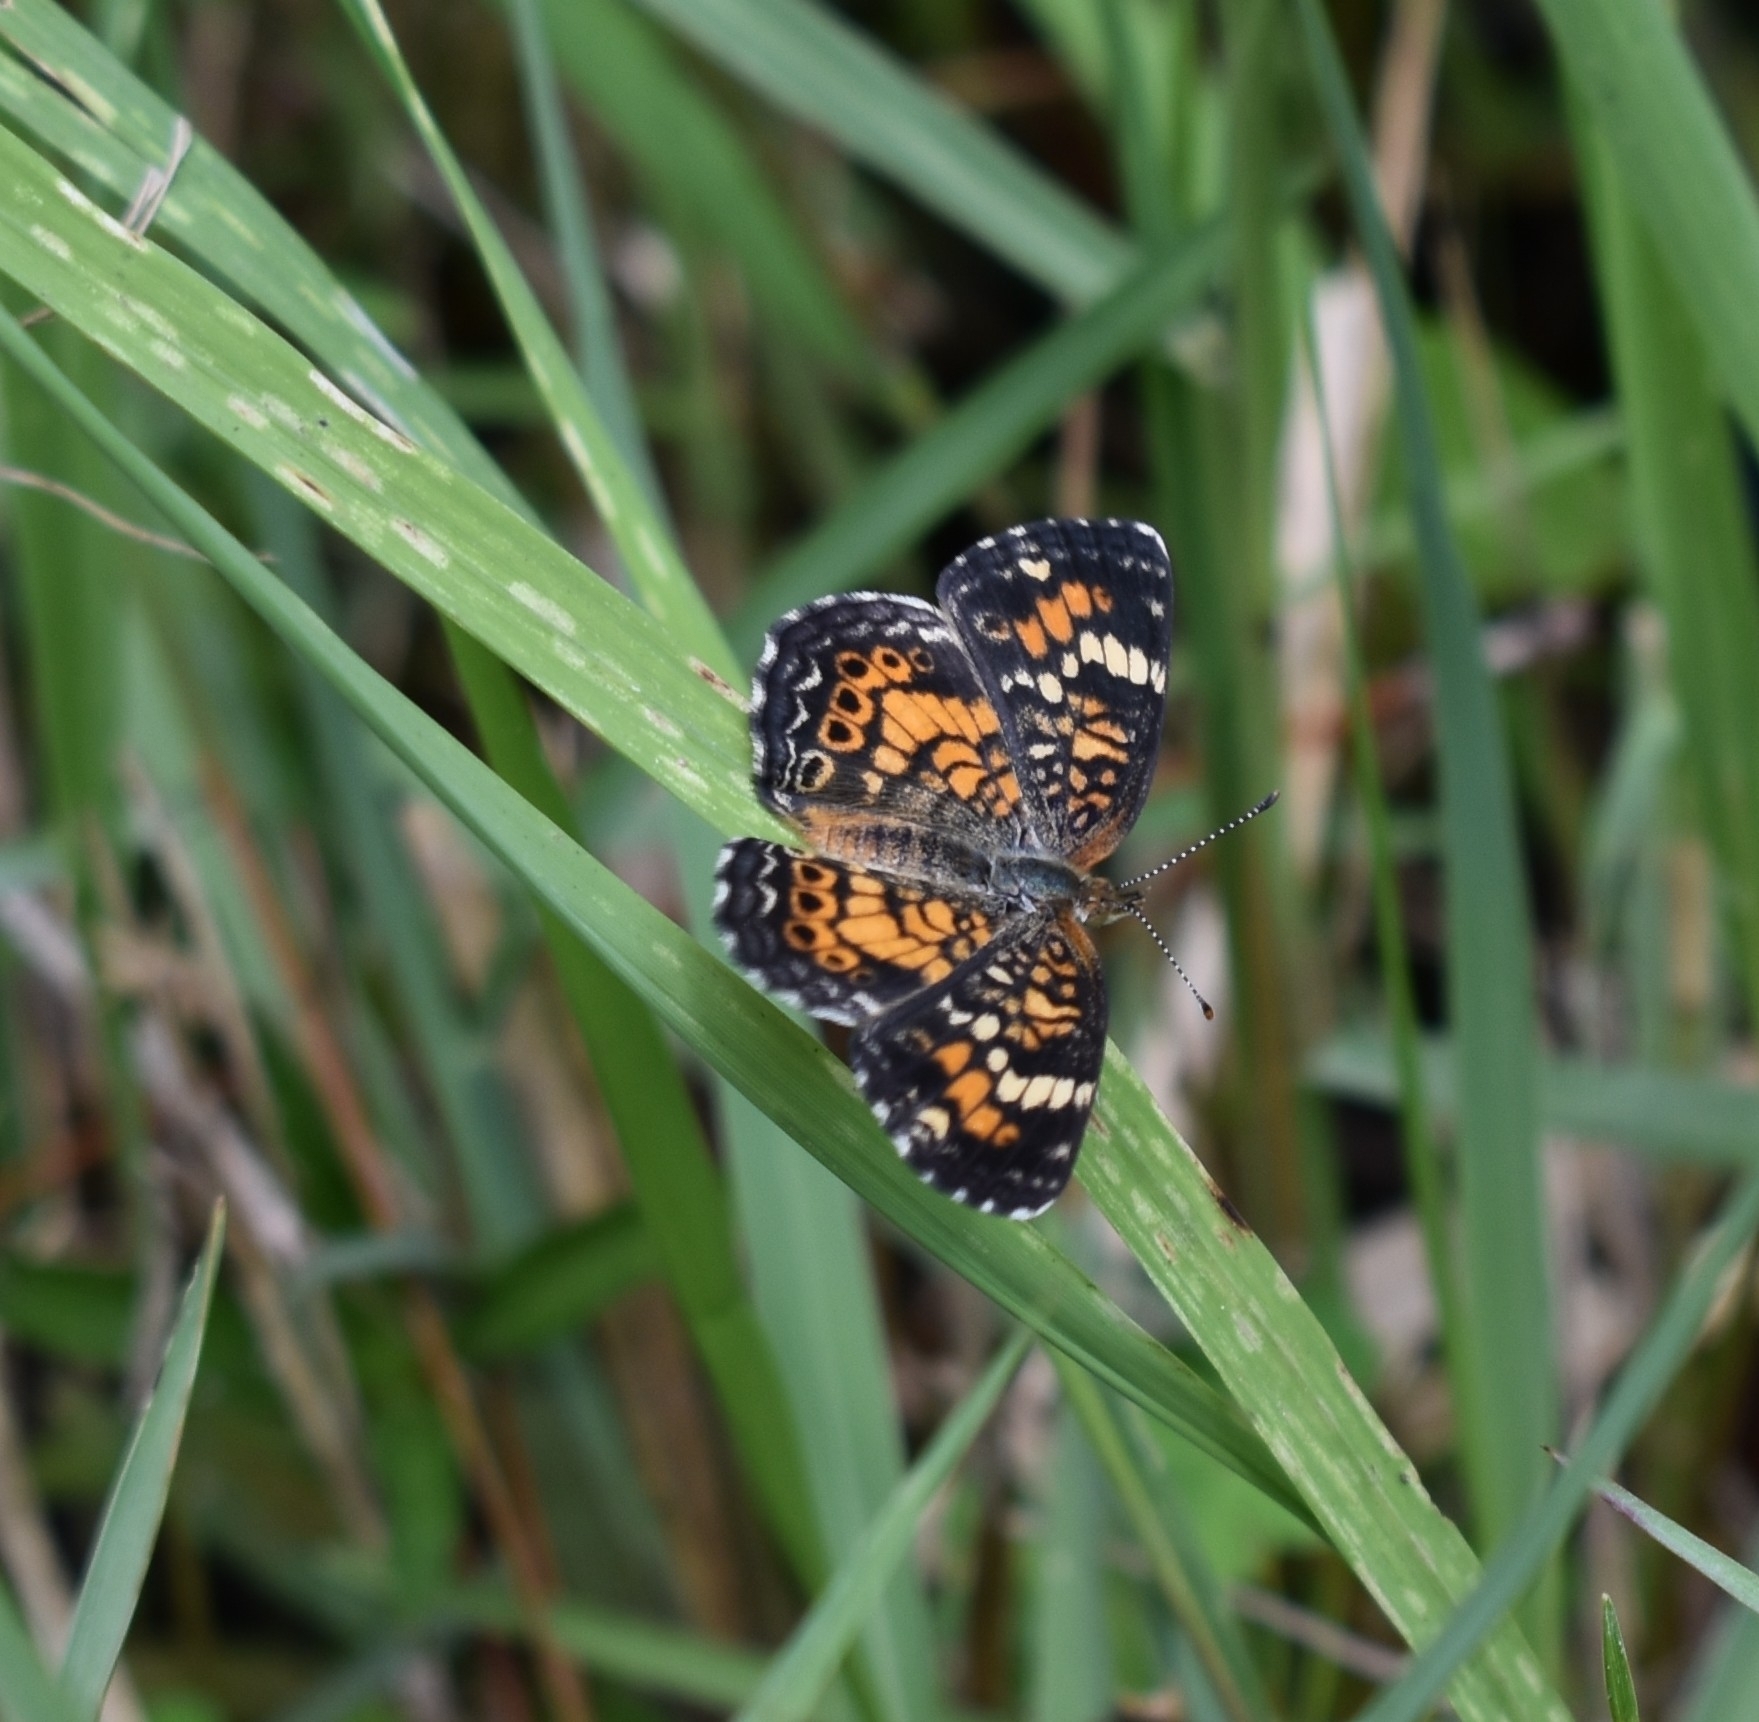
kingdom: Animalia
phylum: Arthropoda
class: Insecta
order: Lepidoptera
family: Nymphalidae
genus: Phyciodes
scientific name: Phyciodes phaon
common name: Phaon crescent
